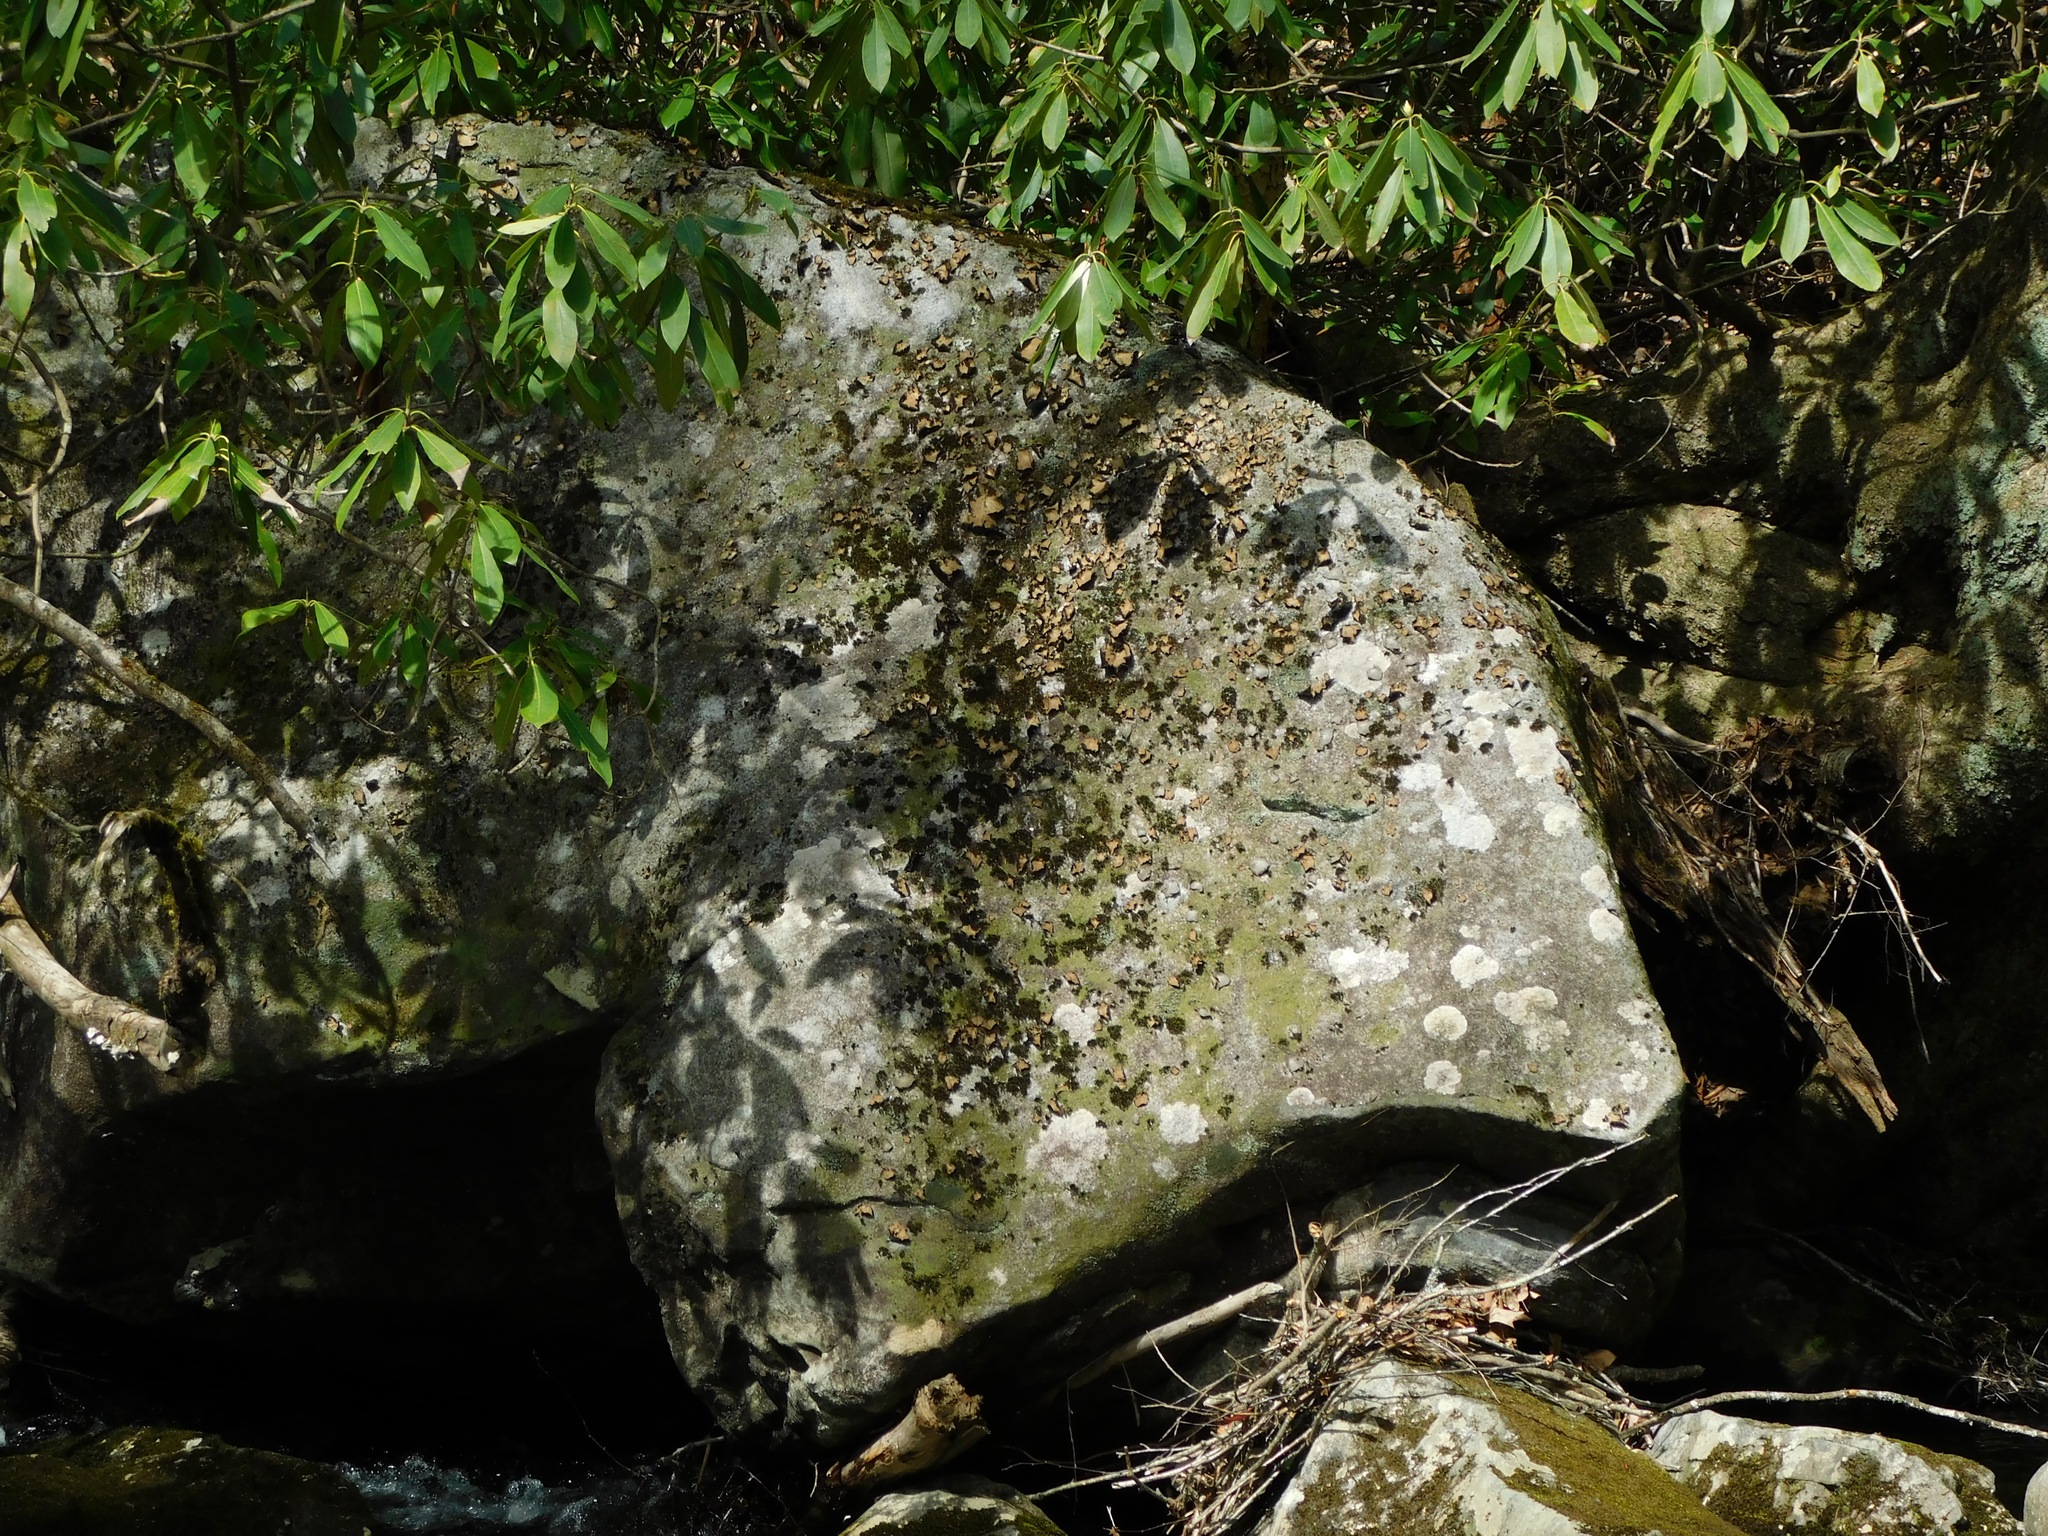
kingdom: Fungi
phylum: Ascomycota
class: Lecanoromycetes
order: Umbilicariales
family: Umbilicariaceae
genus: Lasallia
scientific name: Lasallia papulosa
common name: Common toadskin lichen
